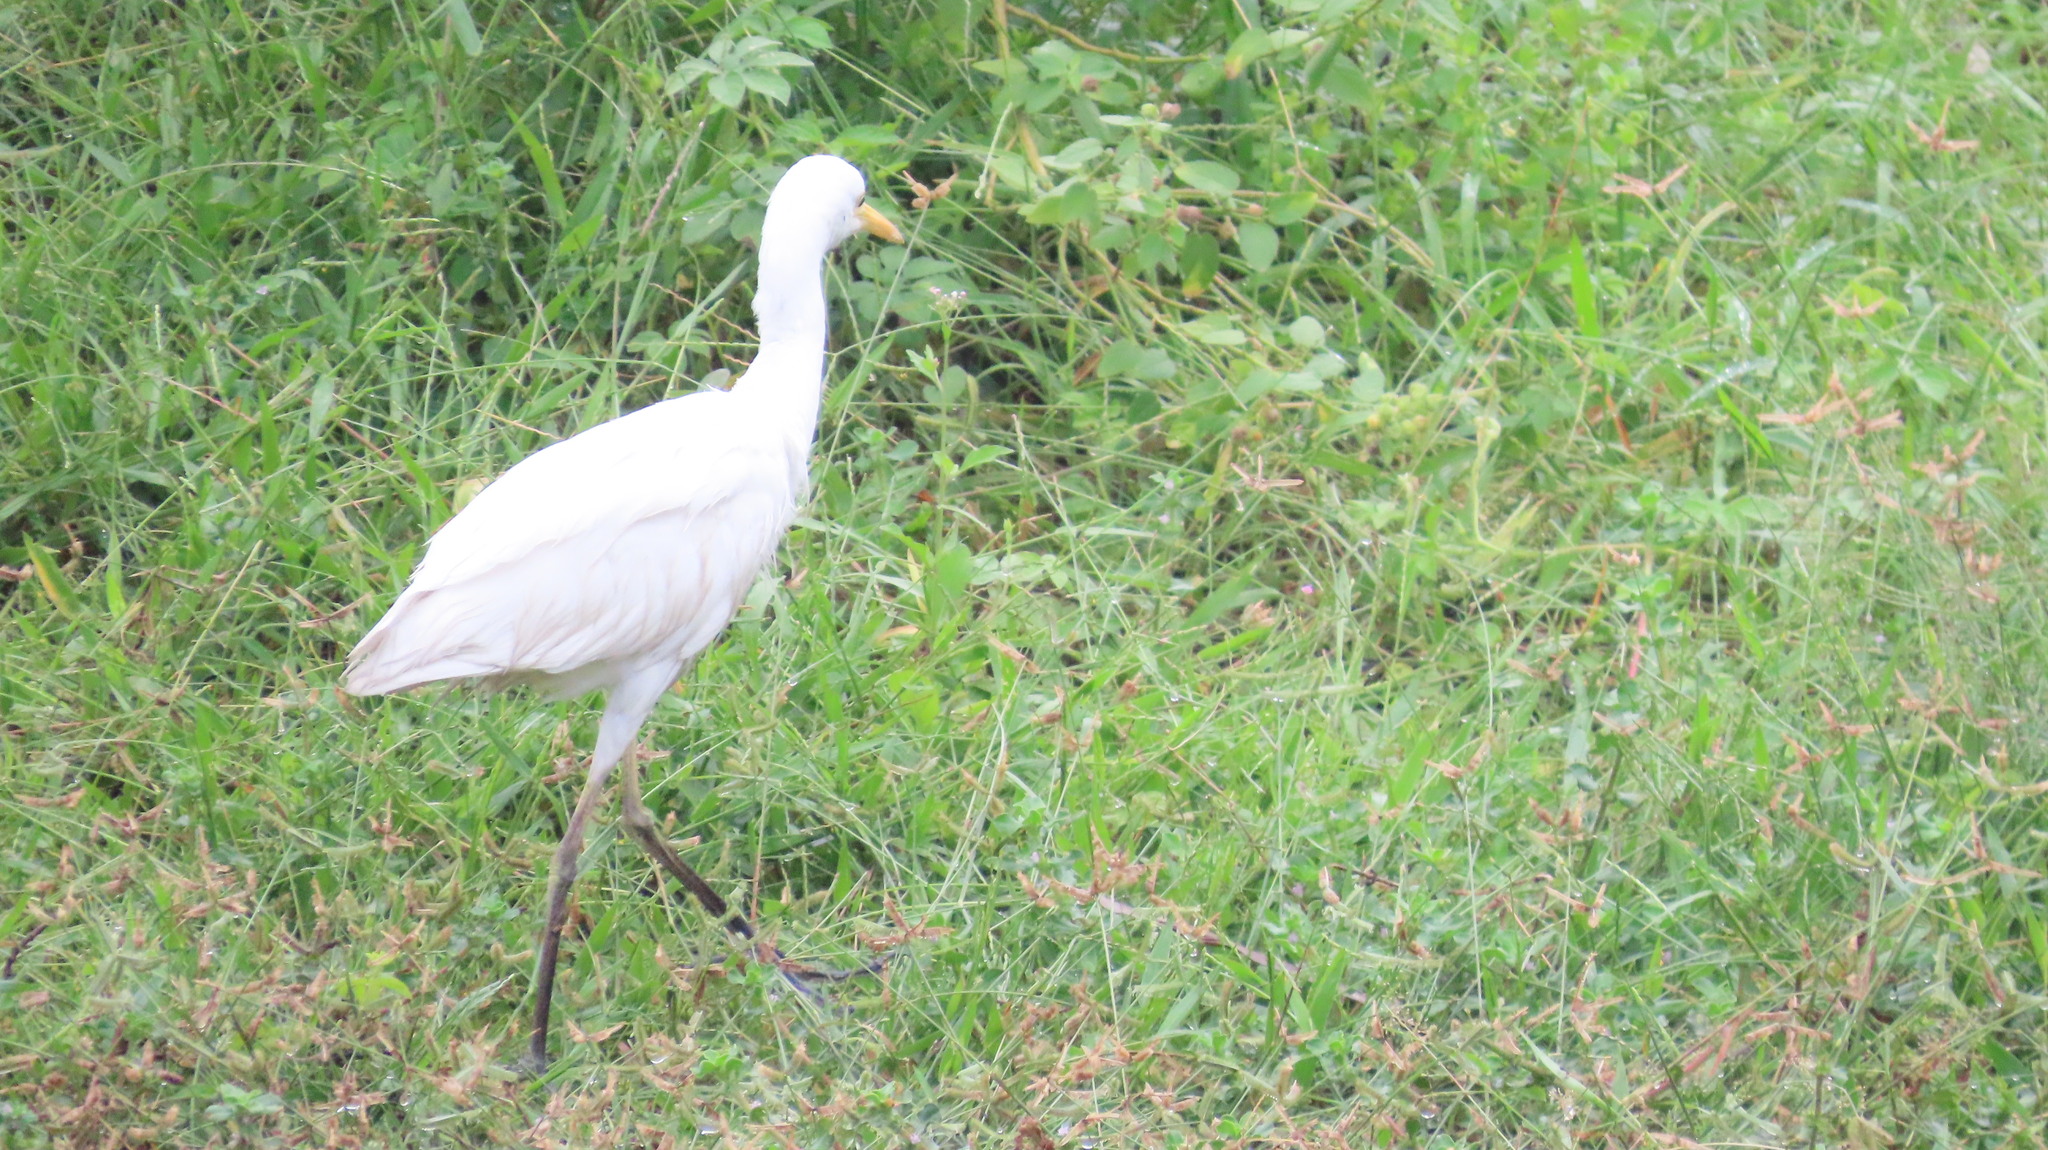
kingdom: Animalia
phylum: Chordata
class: Aves
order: Pelecaniformes
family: Ardeidae
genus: Bubulcus
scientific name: Bubulcus coromandus
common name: Eastern cattle egret
